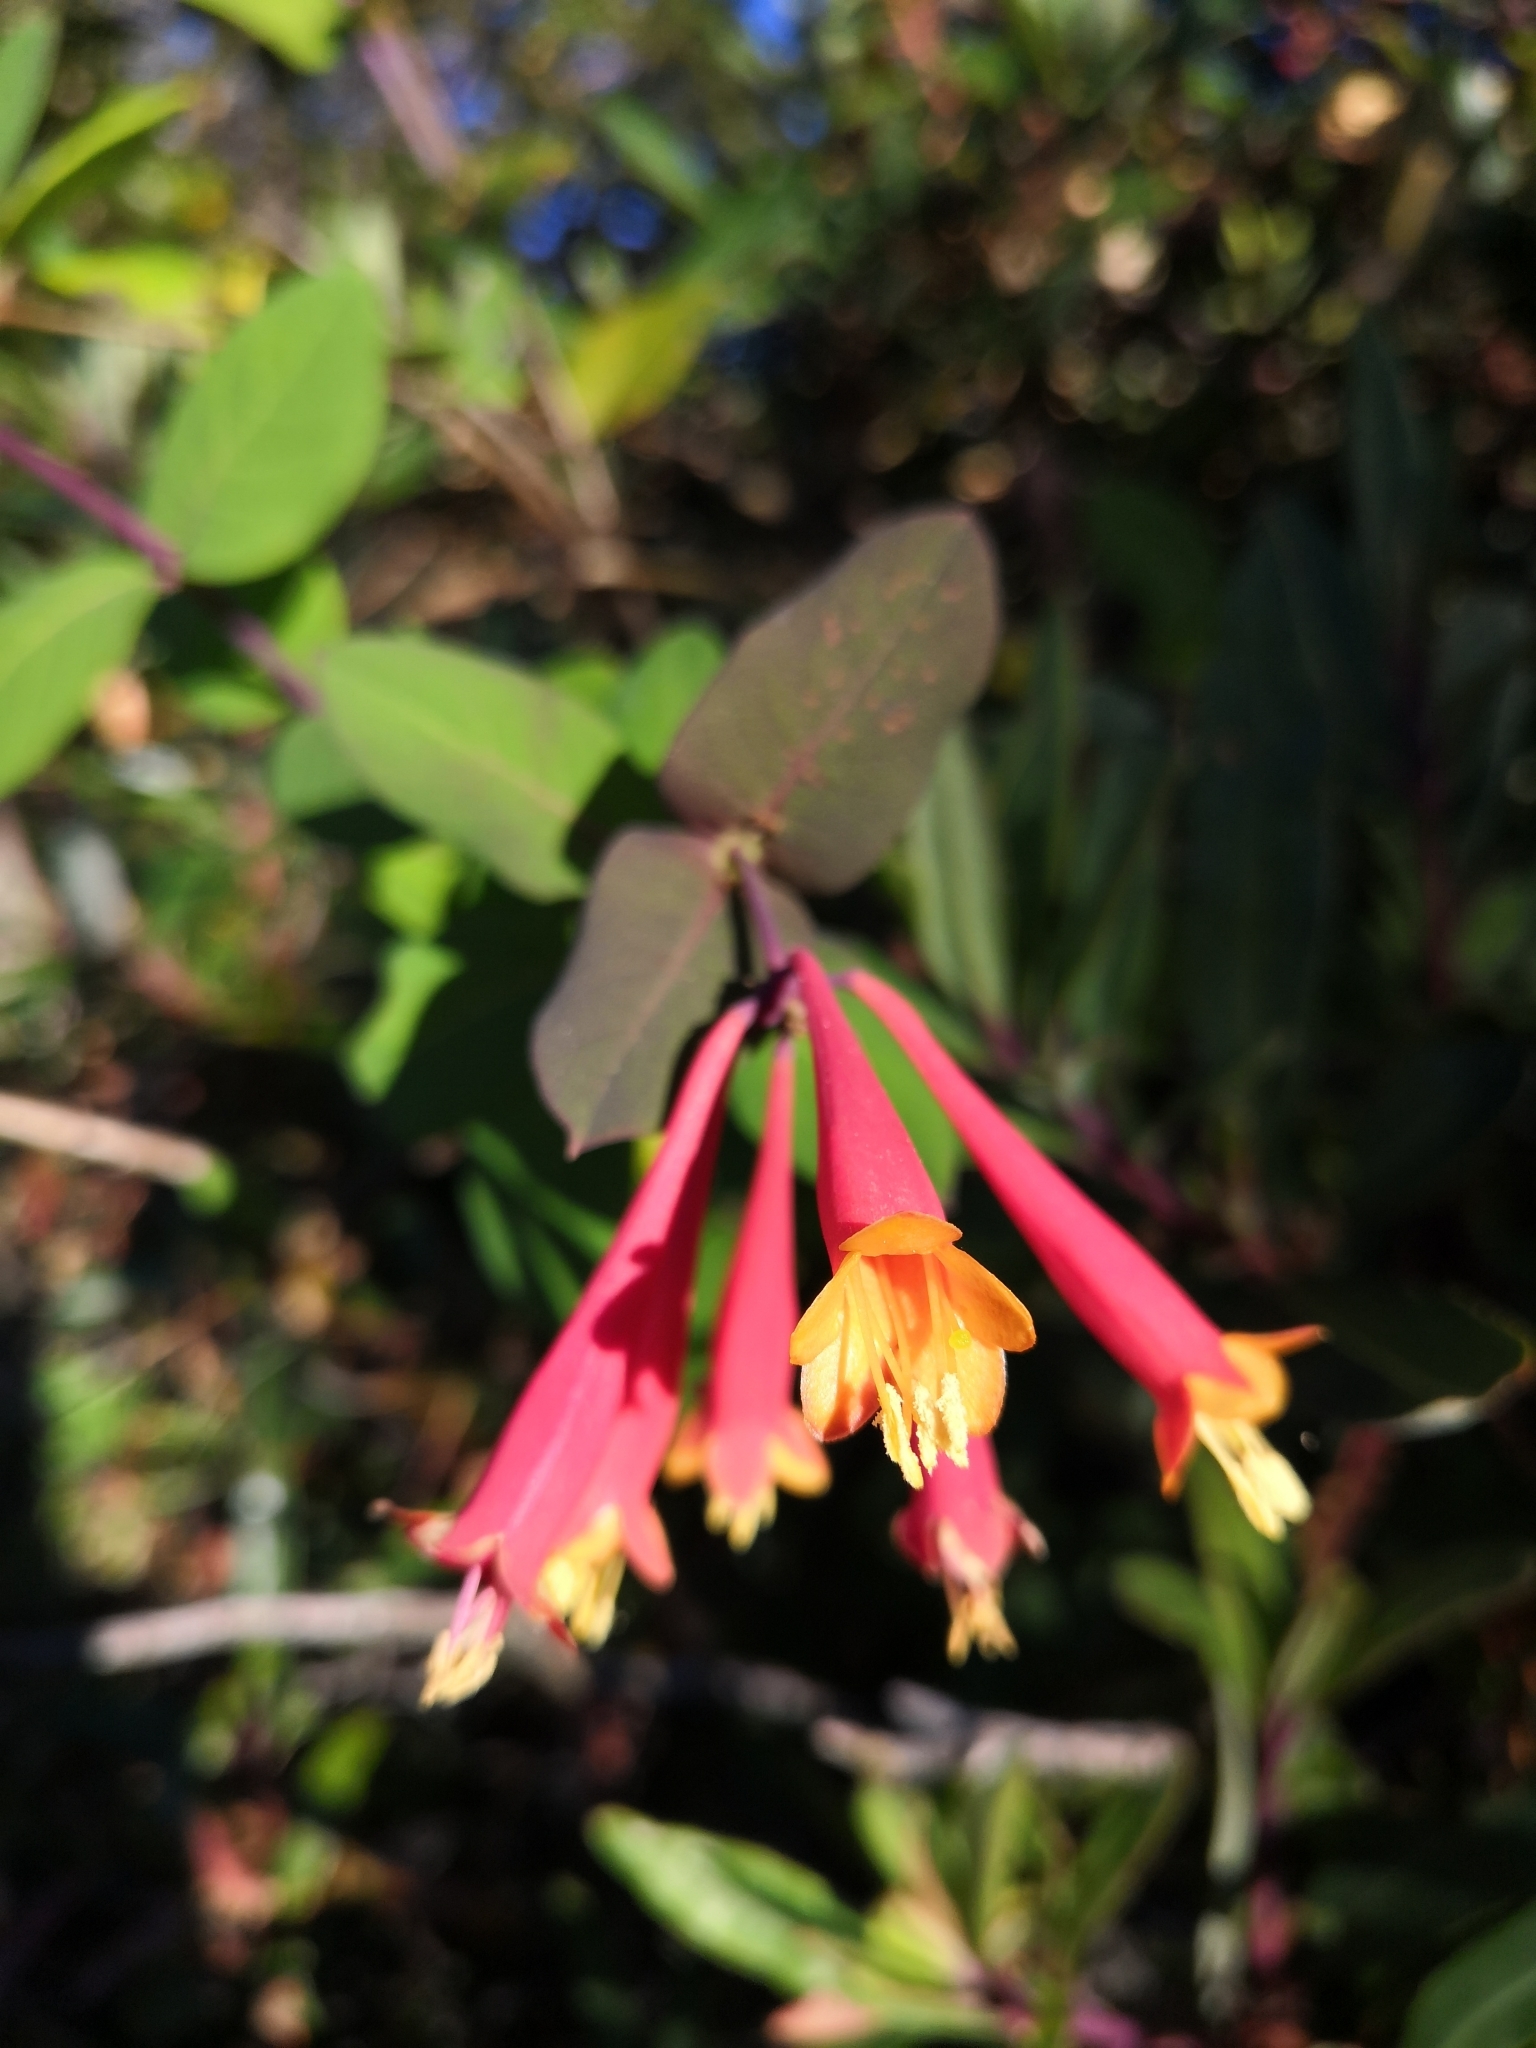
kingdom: Plantae
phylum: Tracheophyta
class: Magnoliopsida
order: Dipsacales
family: Caprifoliaceae
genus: Lonicera
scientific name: Lonicera pilosa
